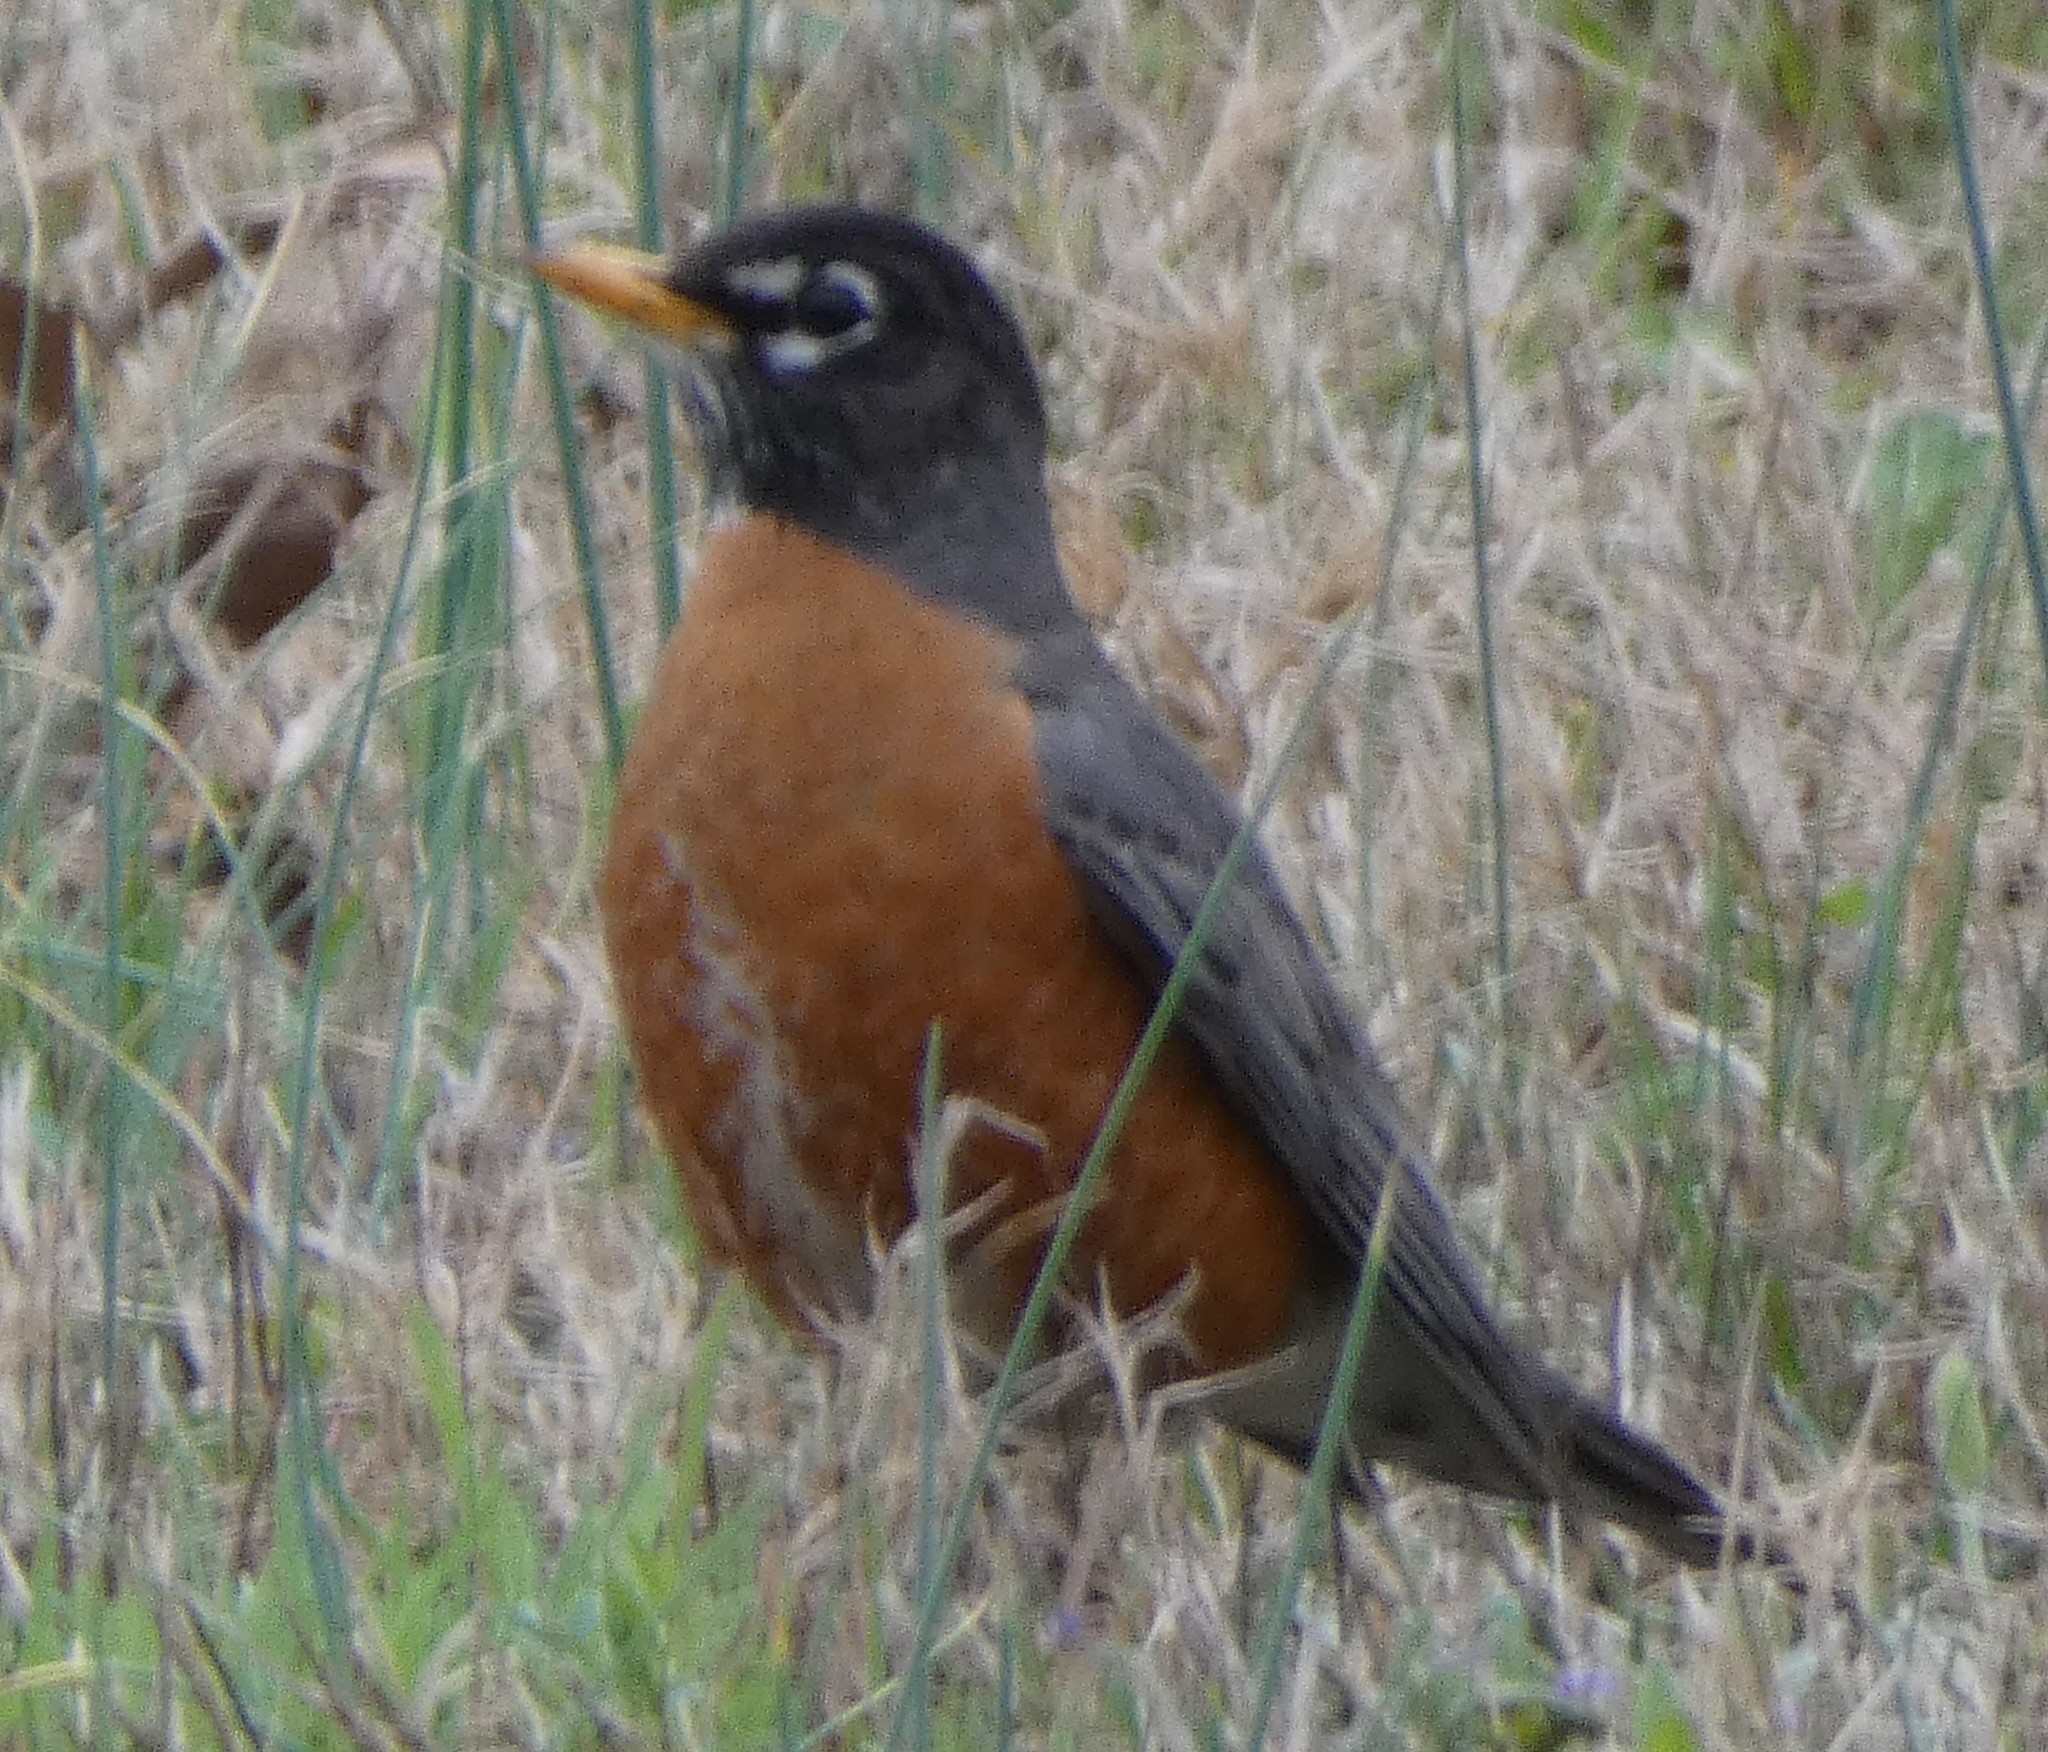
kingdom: Animalia
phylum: Chordata
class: Aves
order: Passeriformes
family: Turdidae
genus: Turdus
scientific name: Turdus migratorius
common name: American robin
